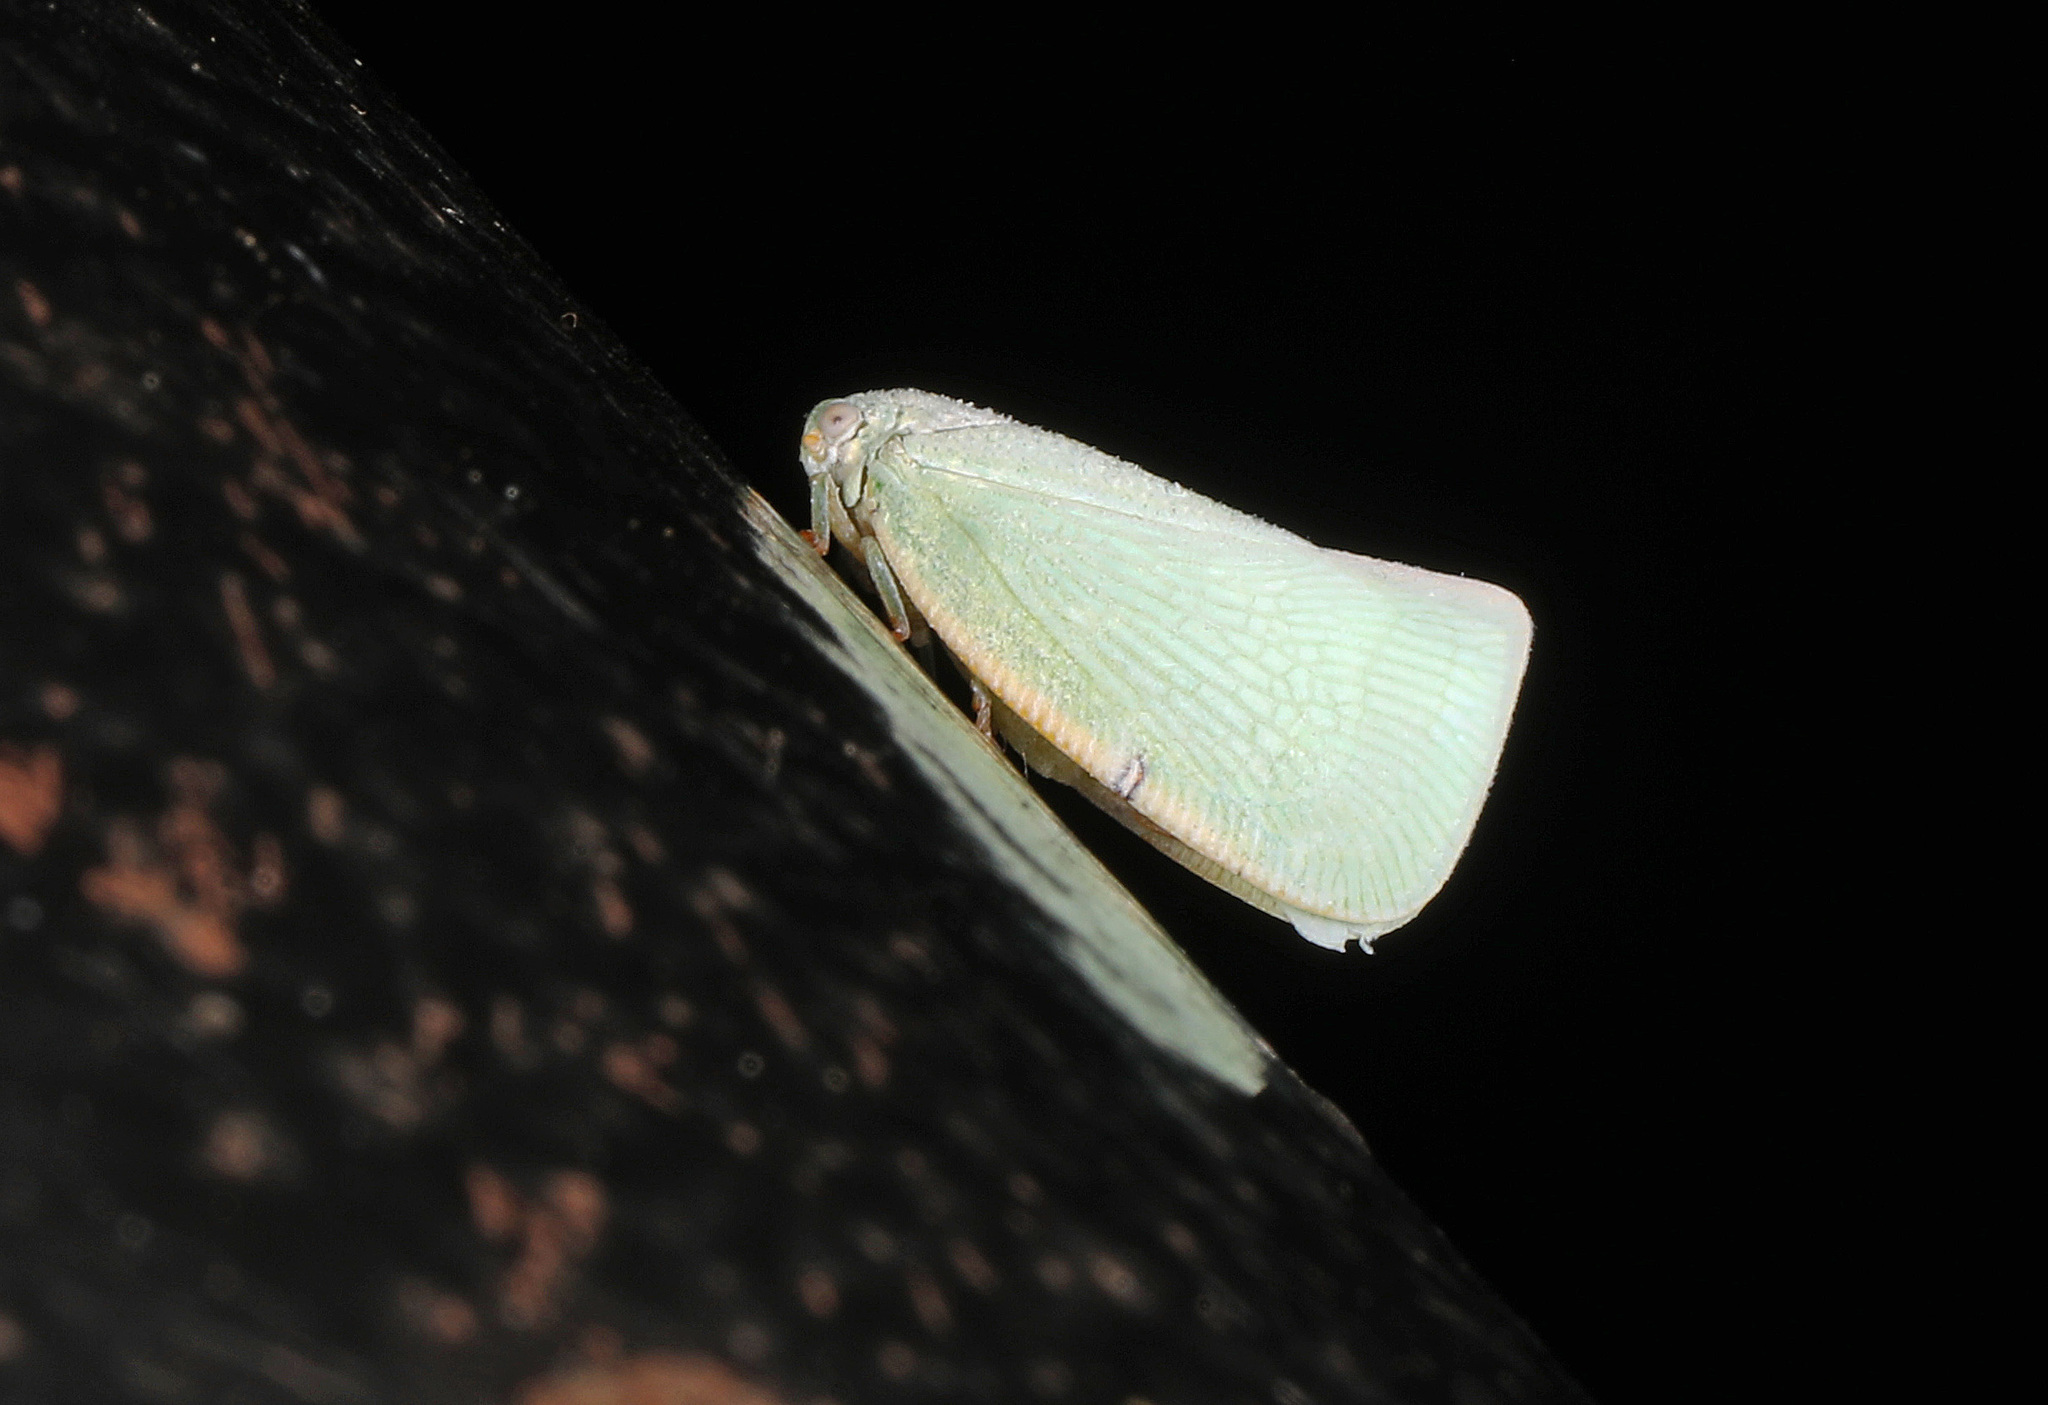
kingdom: Animalia
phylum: Arthropoda
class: Insecta
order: Hemiptera
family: Flatidae
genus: Flatormenis
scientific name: Flatormenis proxima
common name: Northern flatid planthopper
